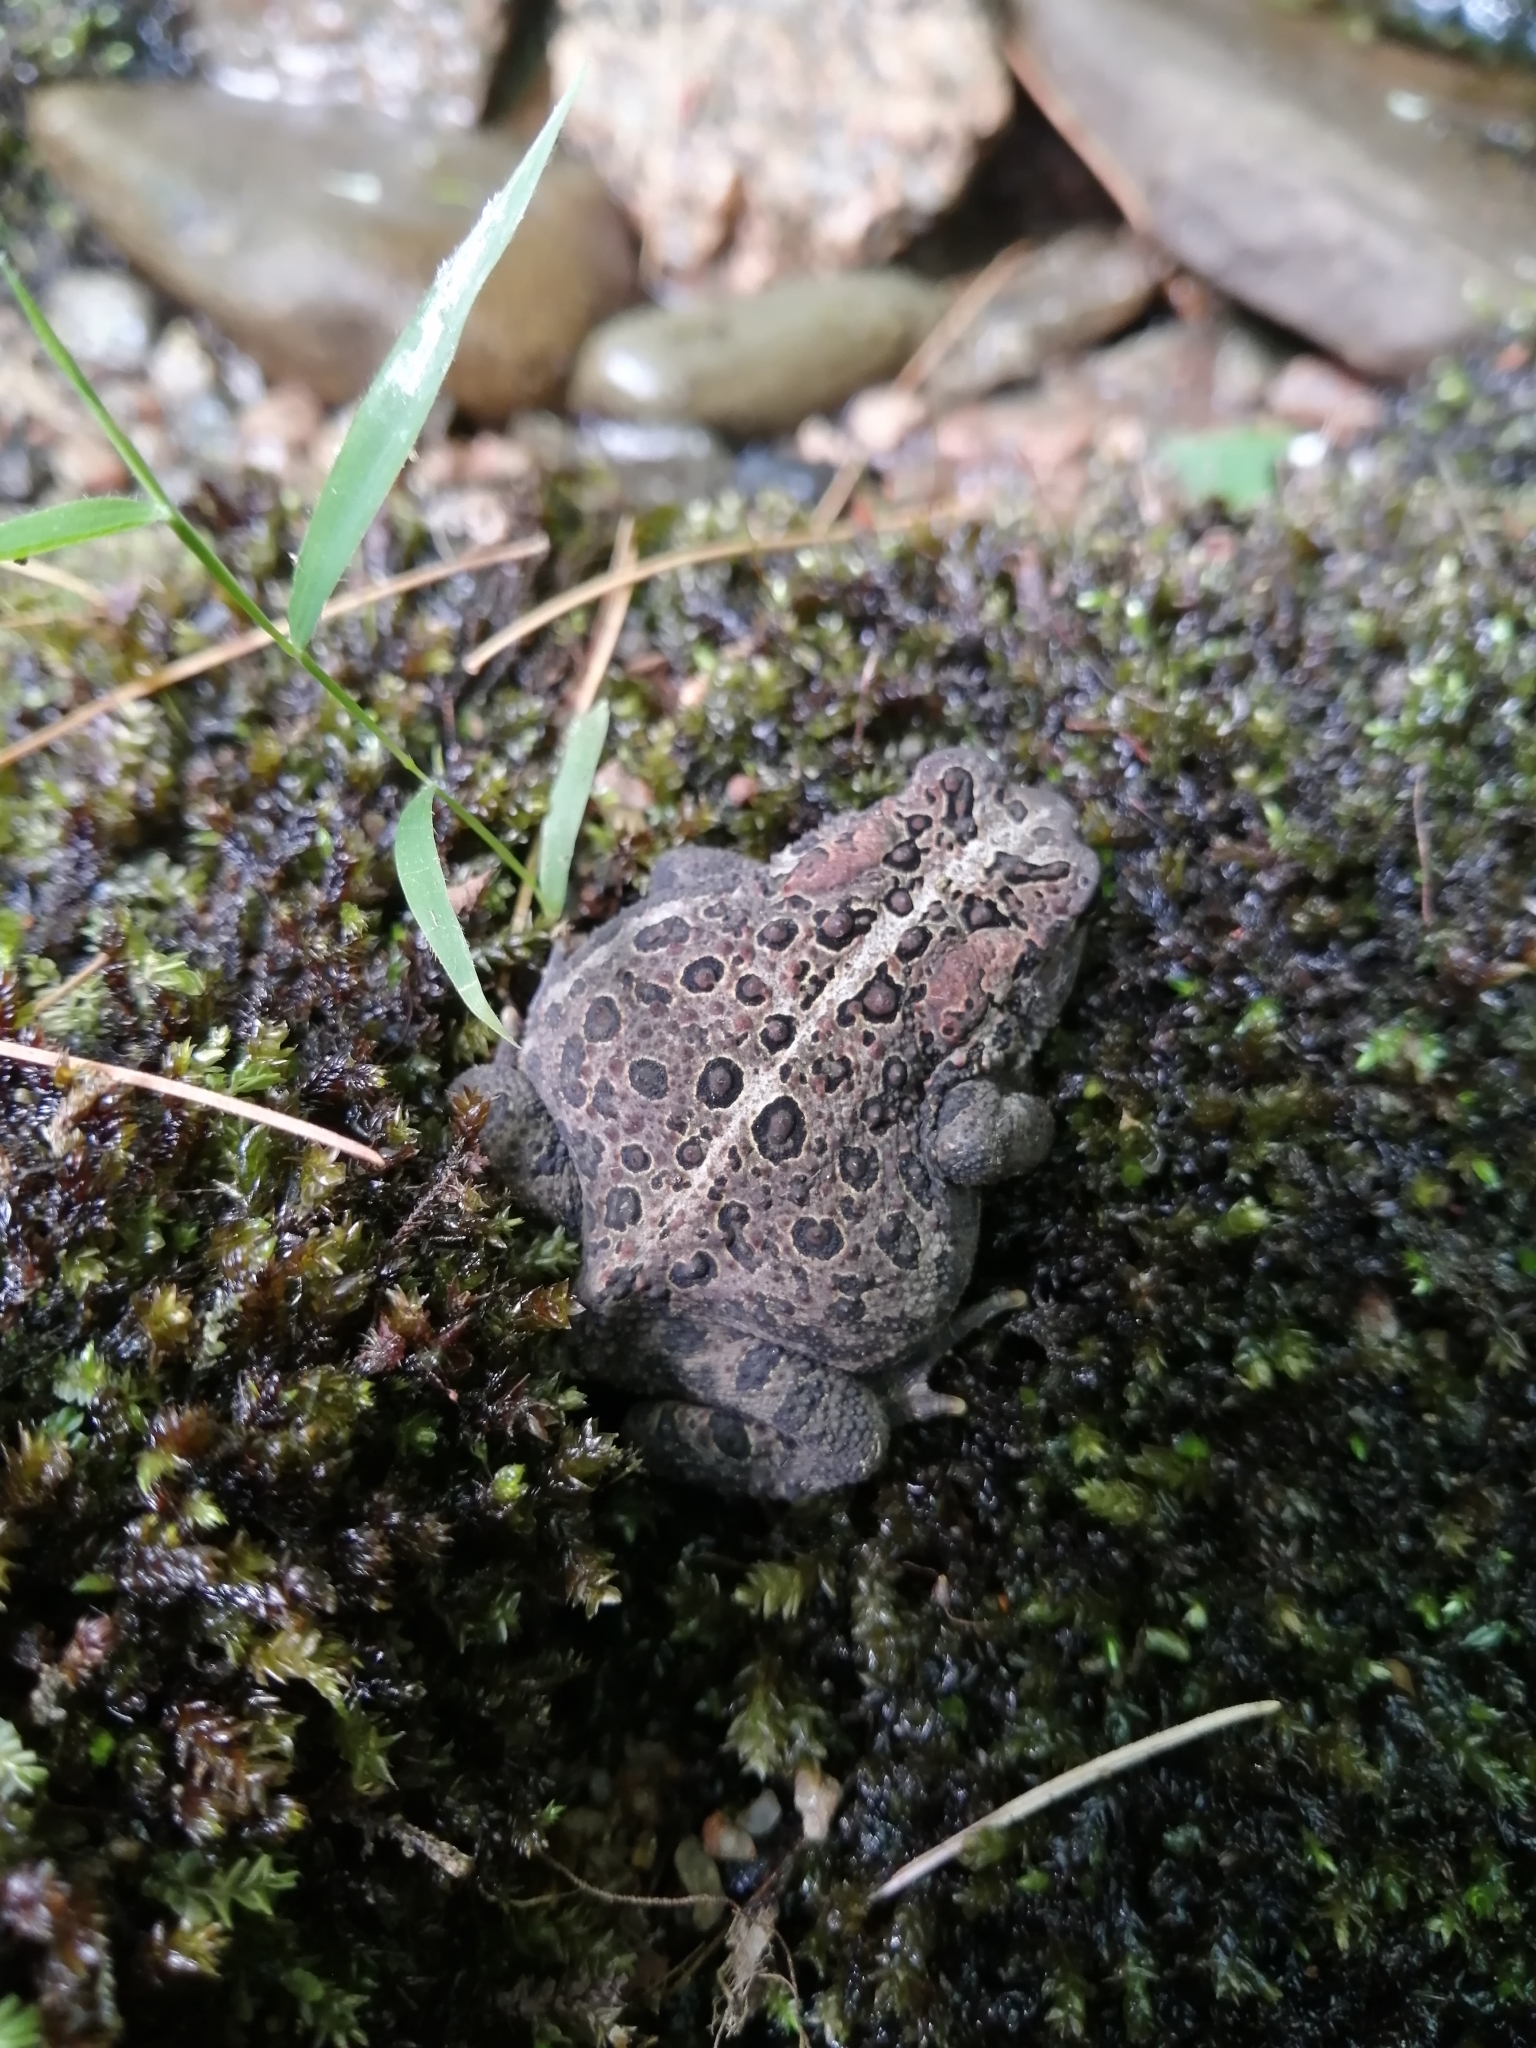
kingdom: Animalia
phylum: Chordata
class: Amphibia
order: Anura
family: Bufonidae
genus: Anaxyrus
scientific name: Anaxyrus americanus
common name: American toad
